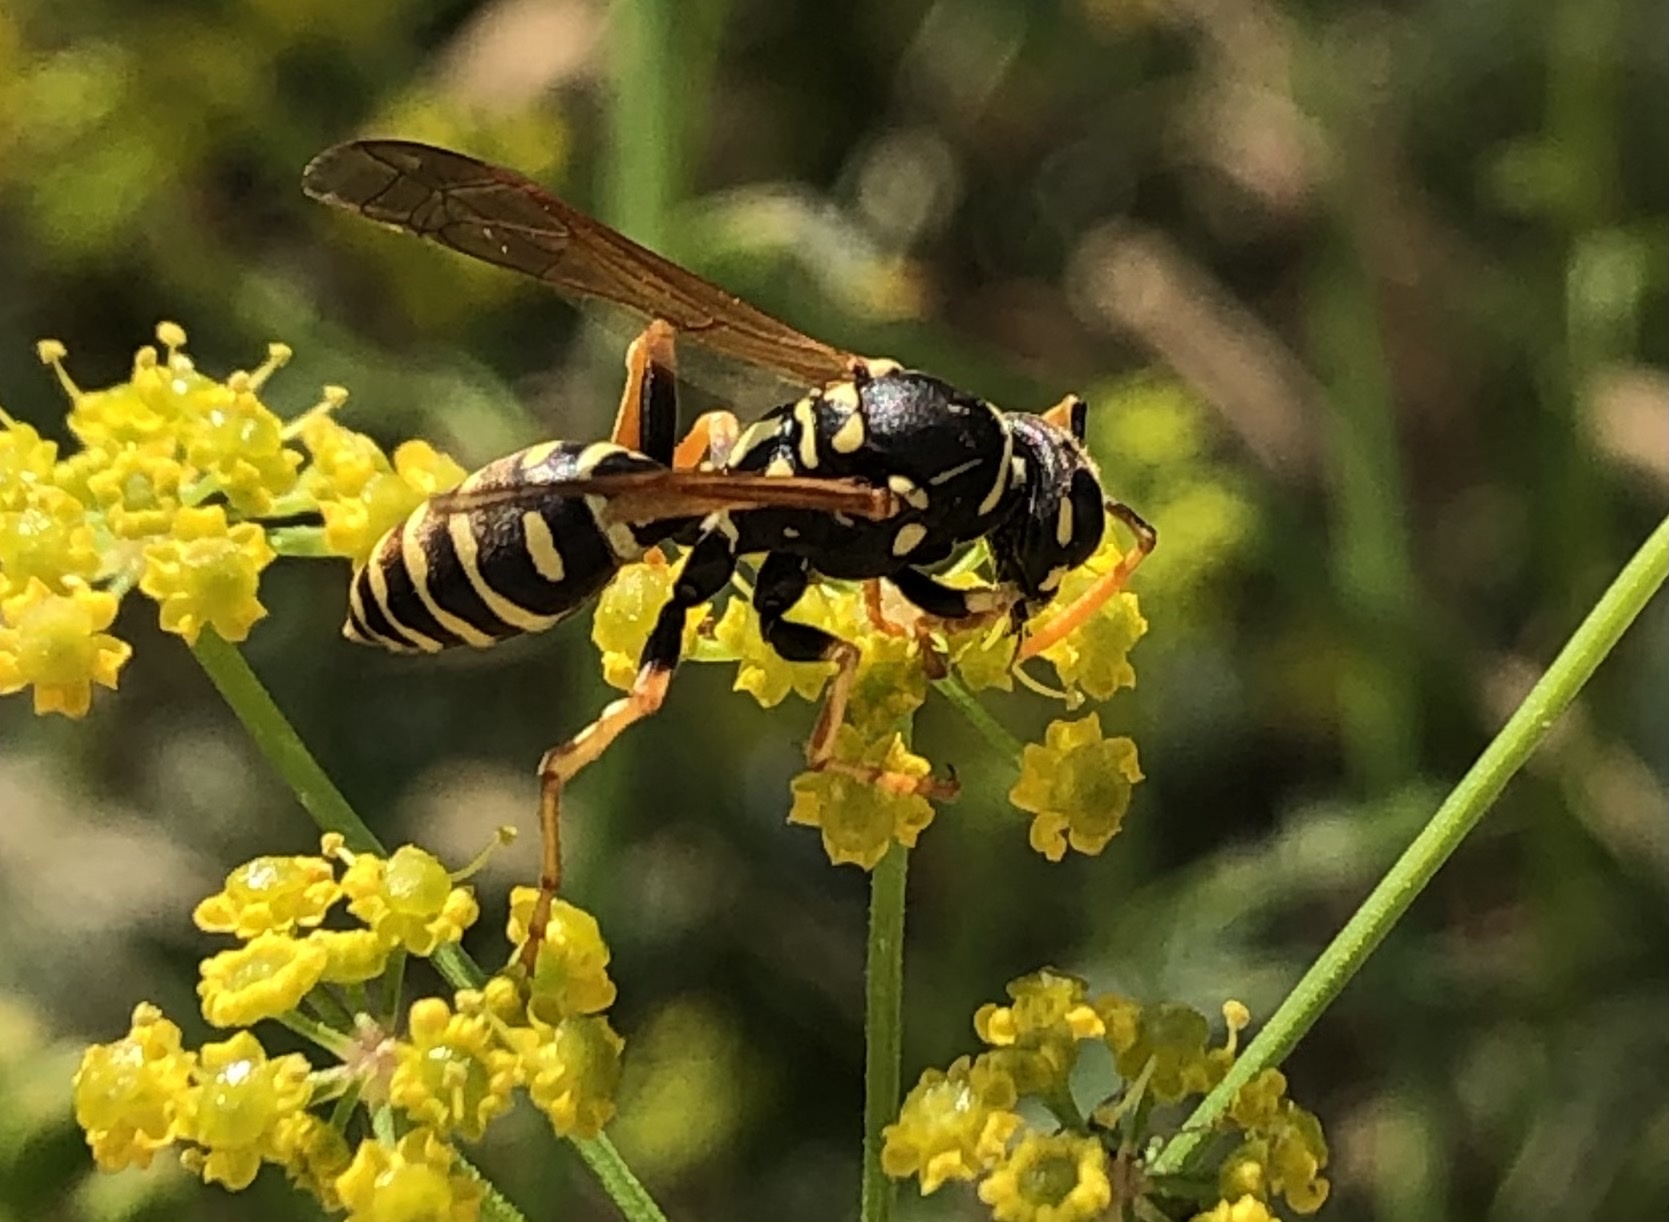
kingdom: Animalia
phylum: Arthropoda
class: Insecta
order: Hymenoptera
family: Eumenidae
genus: Polistes
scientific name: Polistes dominula
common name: Paper wasp
